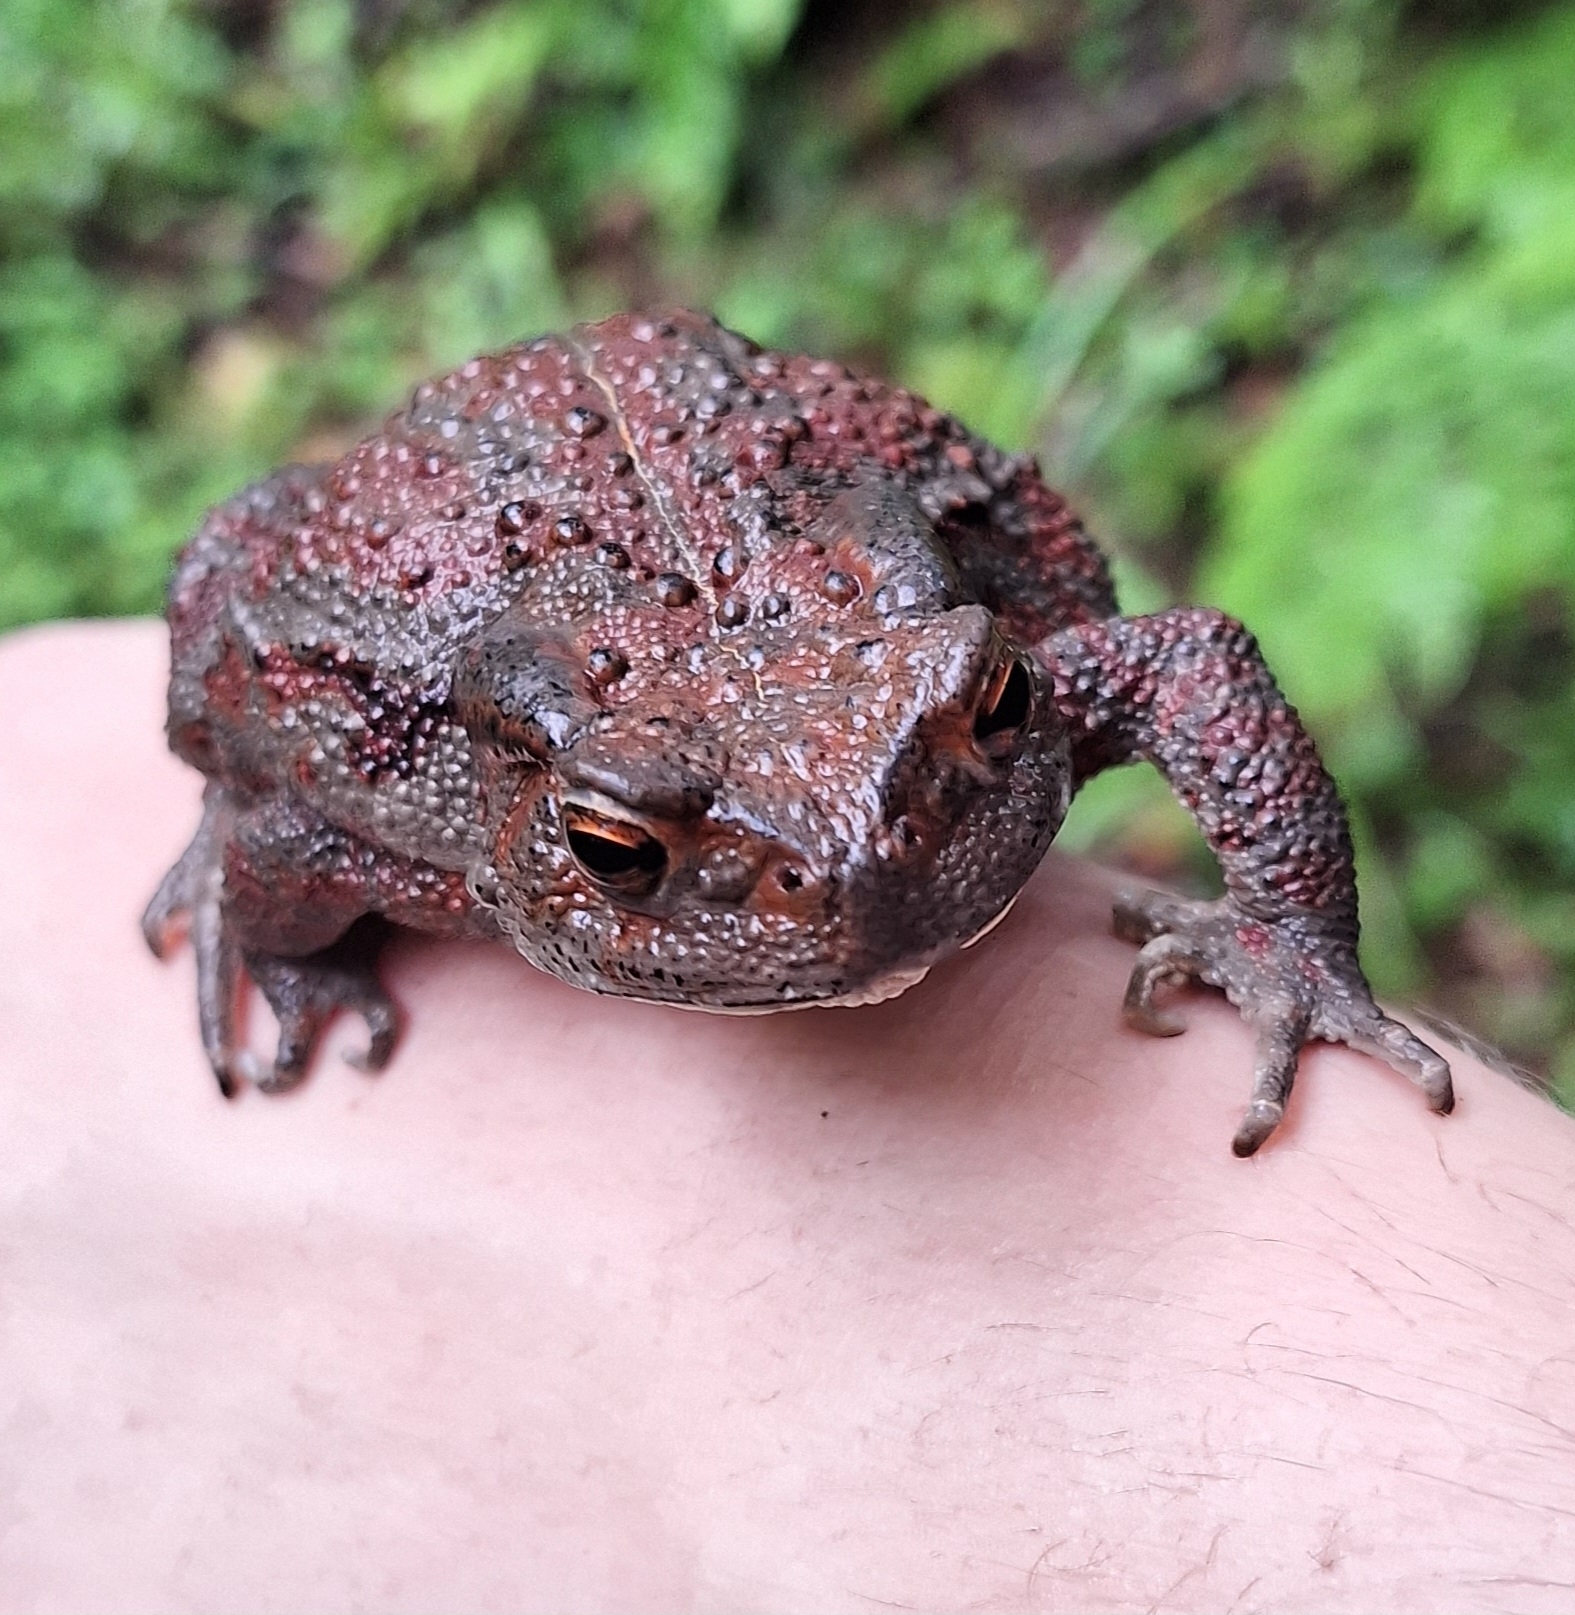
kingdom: Animalia
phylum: Chordata
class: Amphibia
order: Anura
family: Bufonidae
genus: Bufo
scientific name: Bufo gargarizans
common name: Asiatic toad
